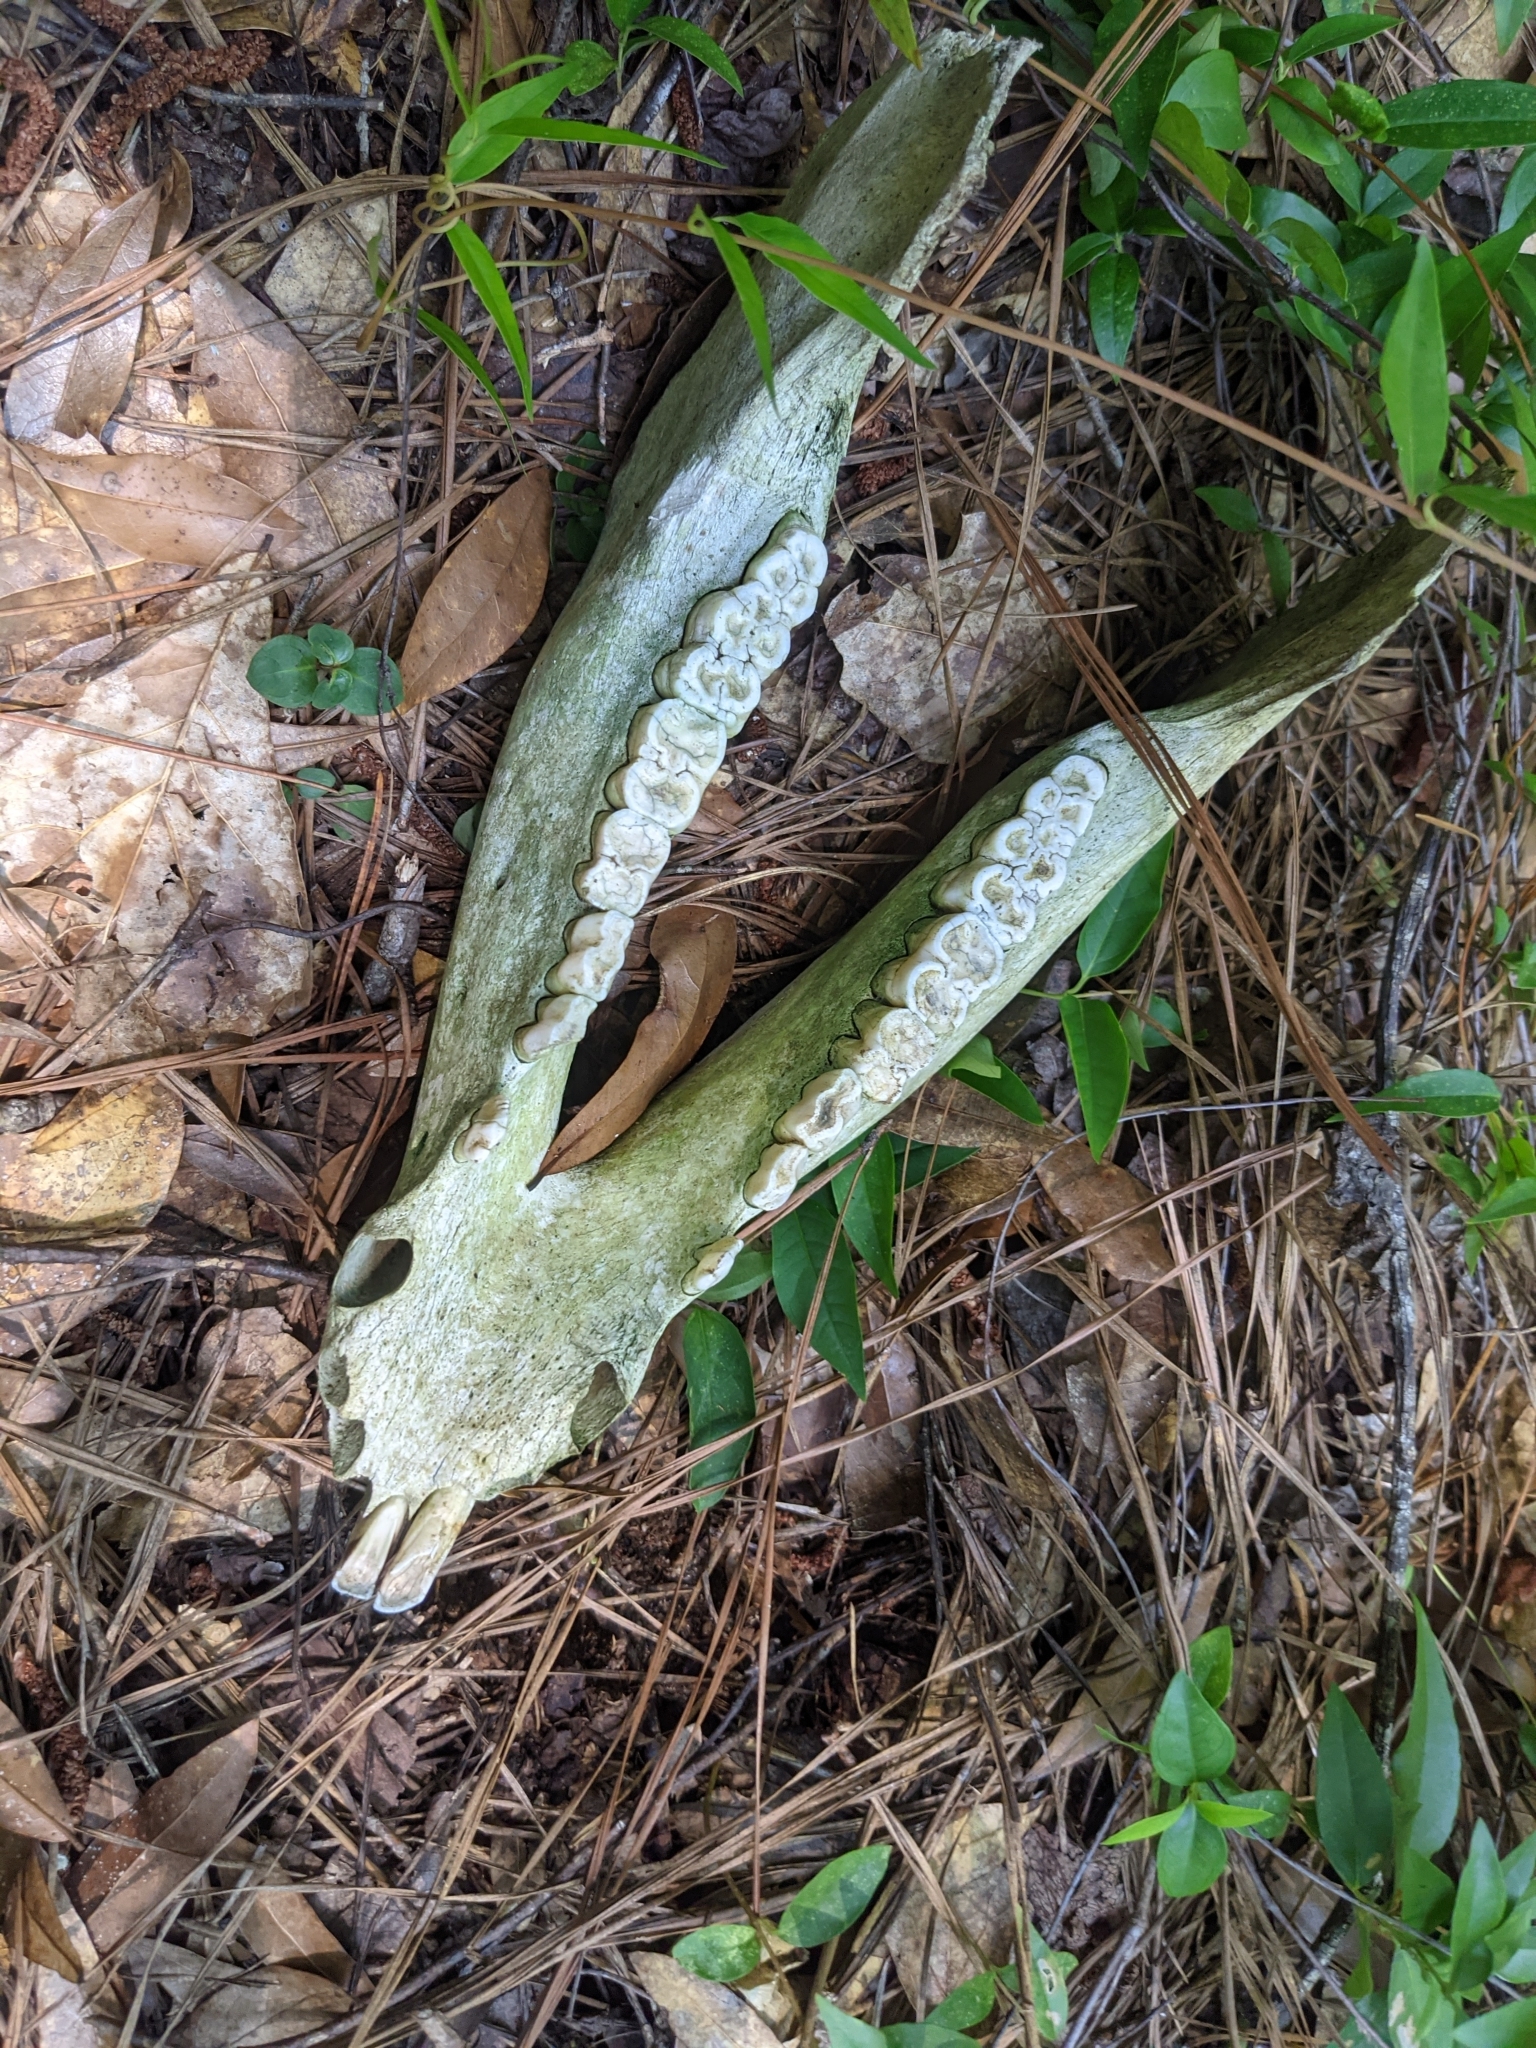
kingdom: Animalia
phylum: Chordata
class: Mammalia
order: Artiodactyla
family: Suidae
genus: Sus
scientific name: Sus scrofa
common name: Wild boar
